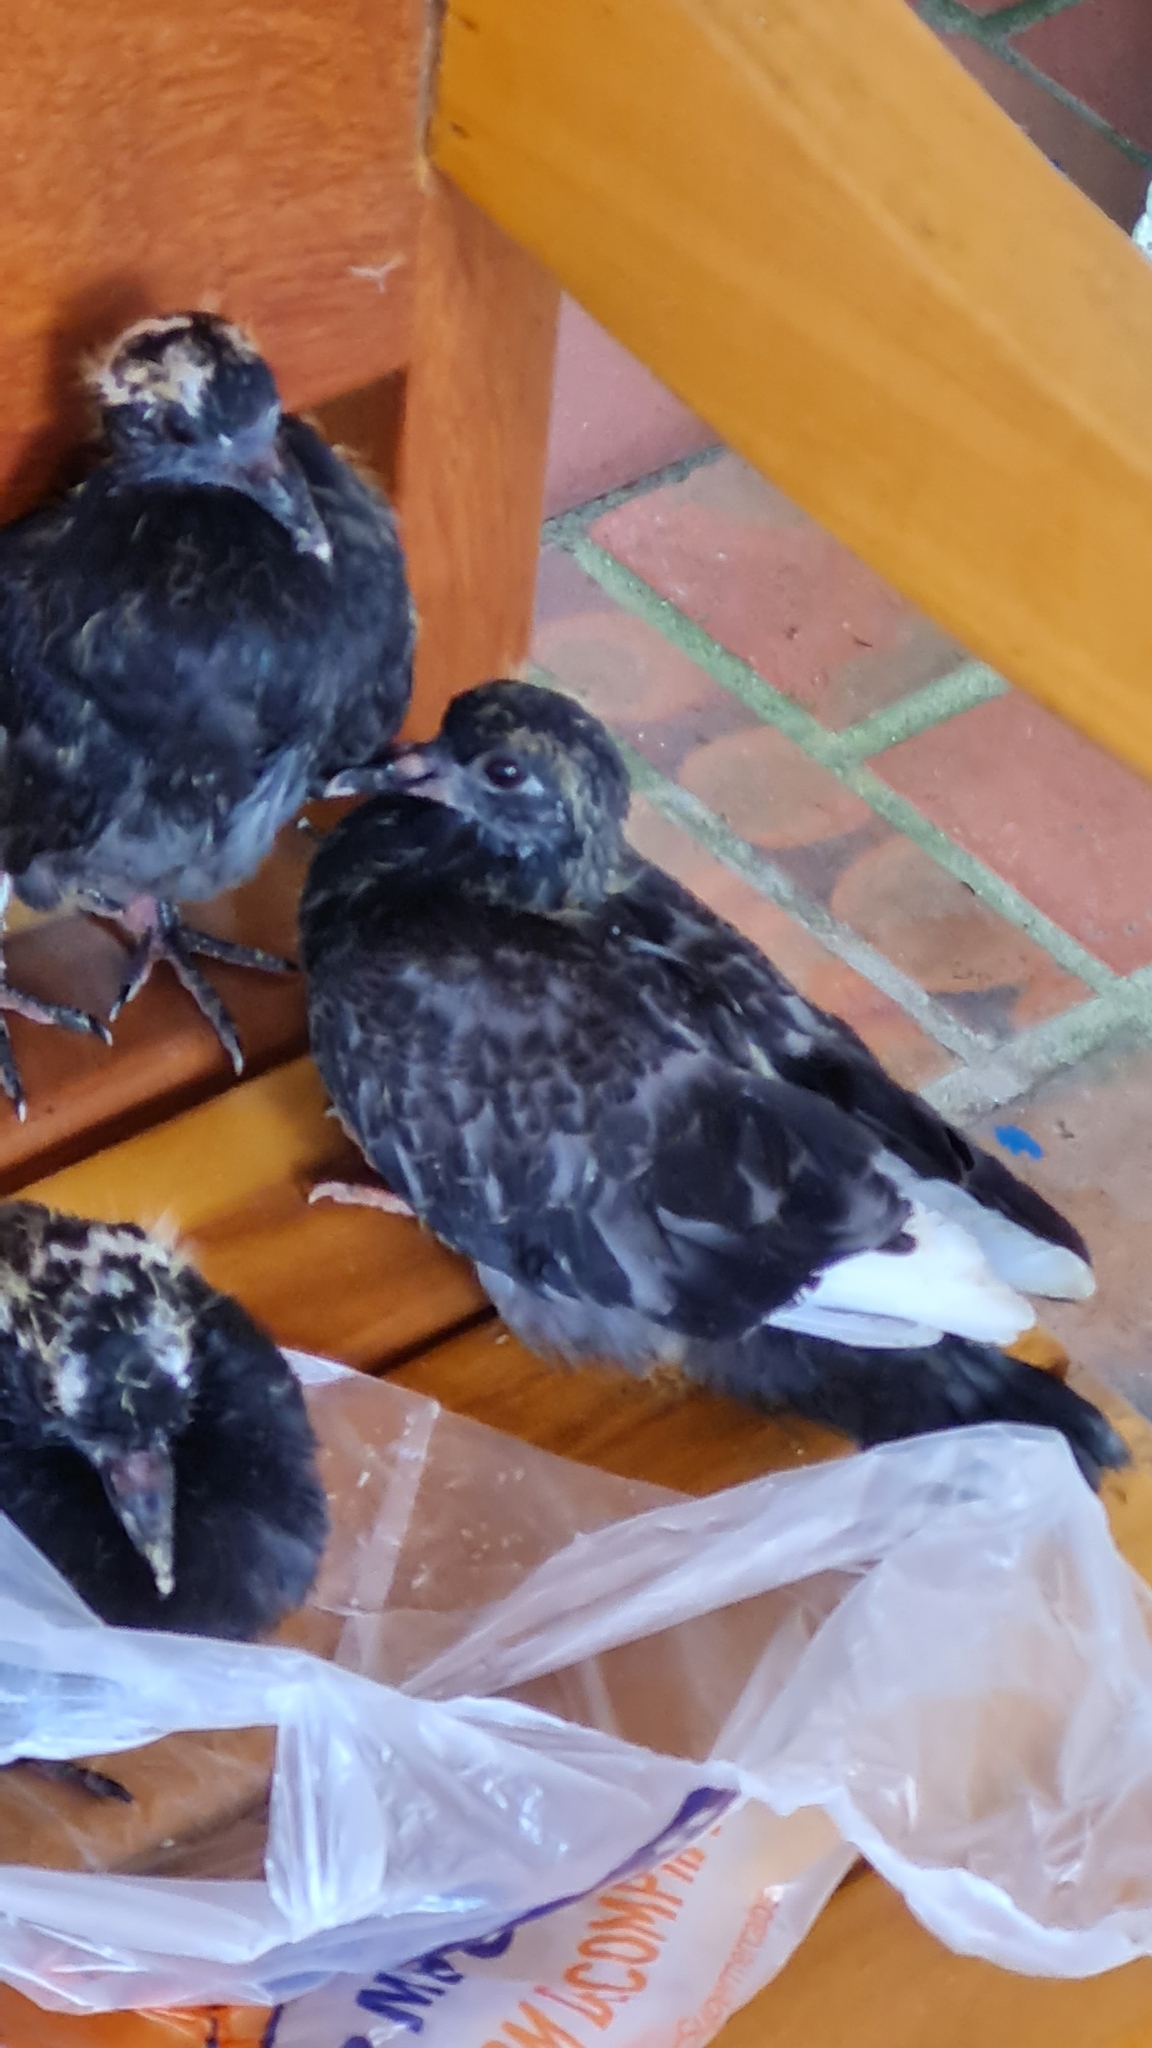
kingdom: Animalia
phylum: Chordata
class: Aves
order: Columbiformes
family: Columbidae
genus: Columba
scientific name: Columba livia
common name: Rock pigeon
